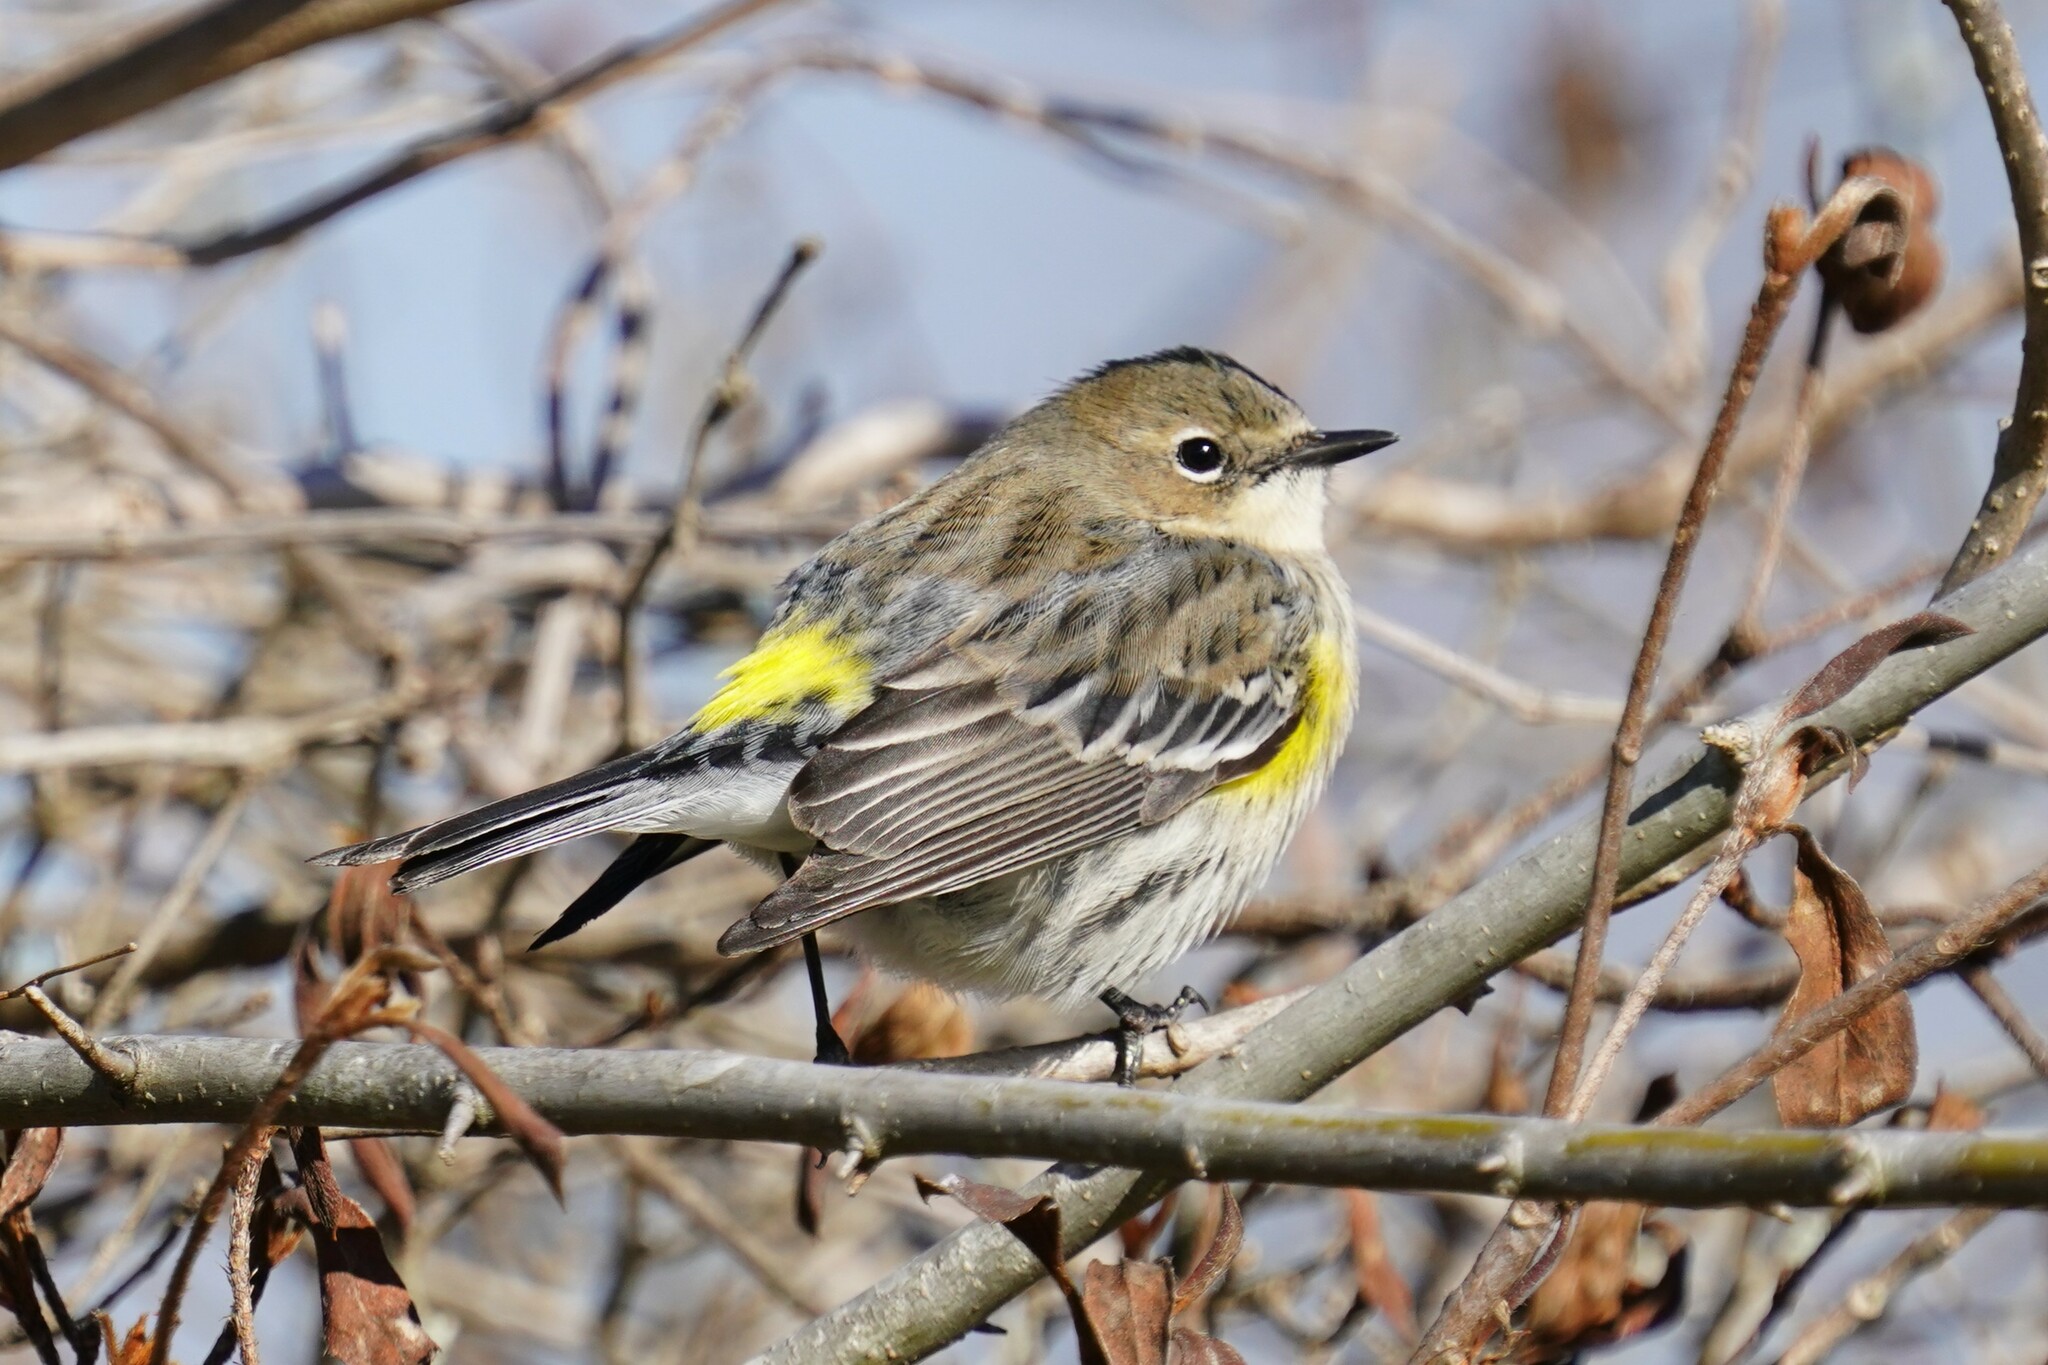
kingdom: Animalia
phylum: Chordata
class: Aves
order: Passeriformes
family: Parulidae
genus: Setophaga
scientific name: Setophaga coronata
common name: Myrtle warbler
